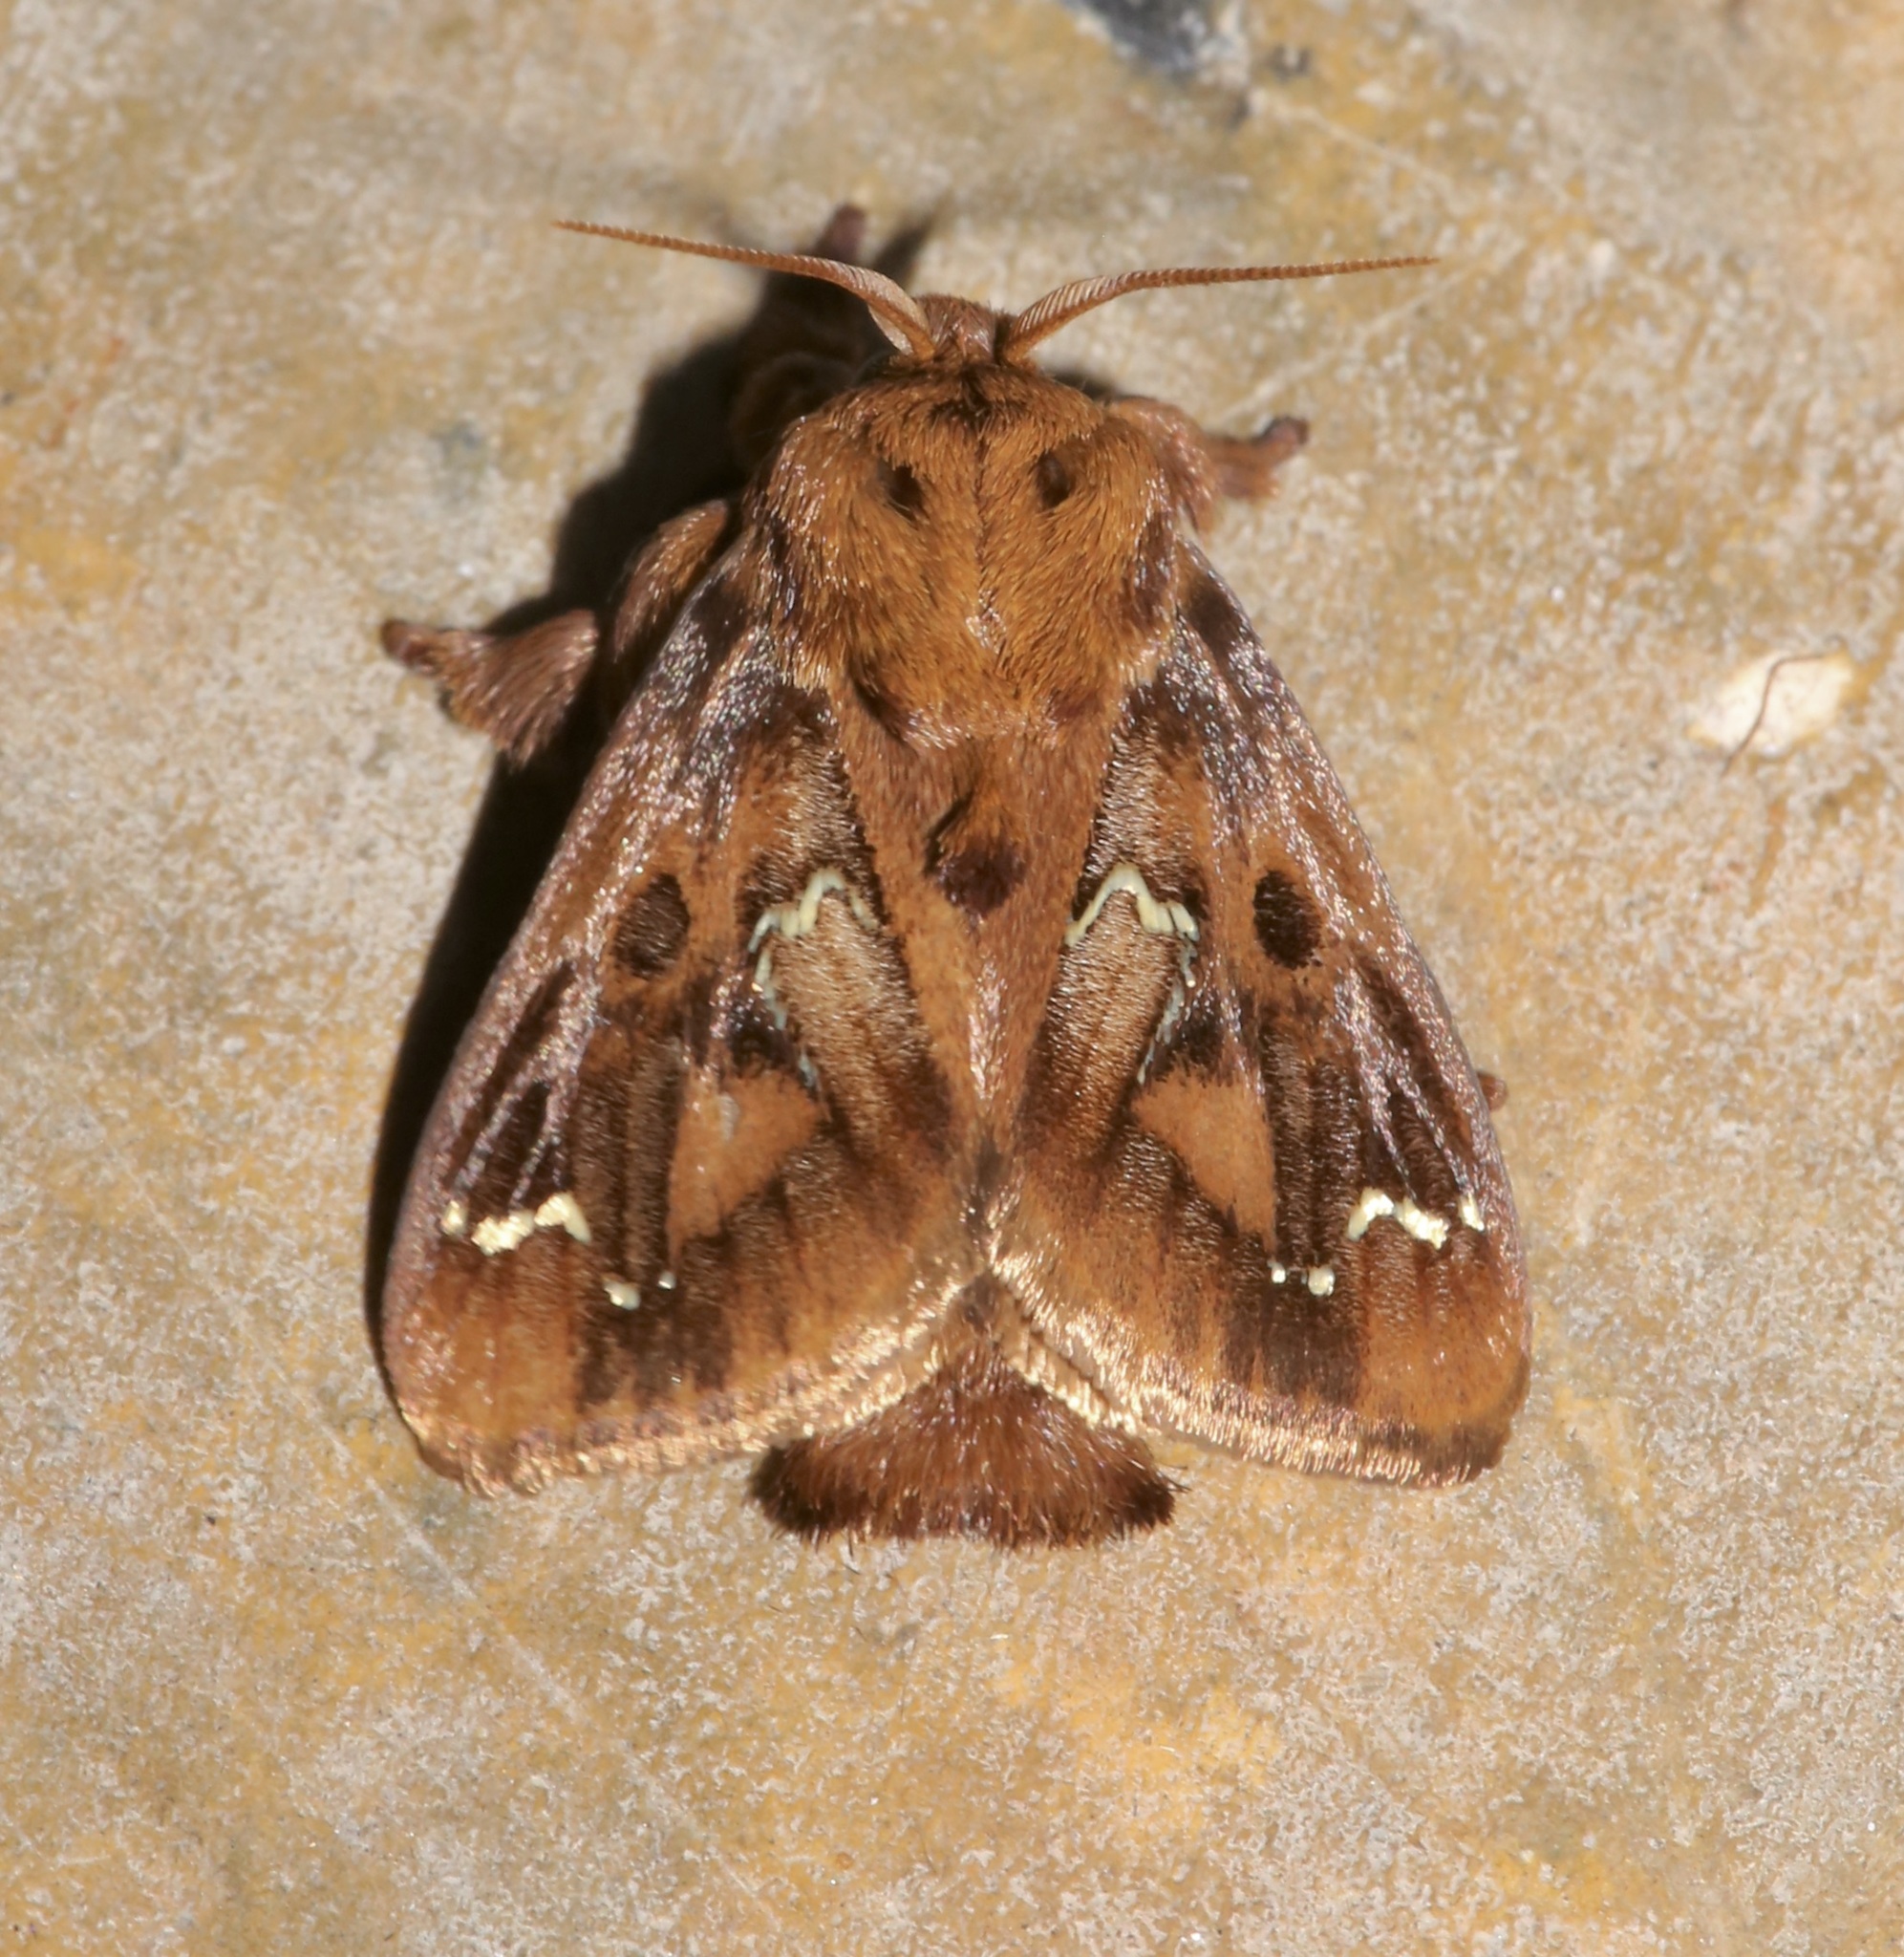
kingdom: Animalia
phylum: Arthropoda
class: Insecta
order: Lepidoptera
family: Limacodidae
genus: Euclea
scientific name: Euclea buscki
